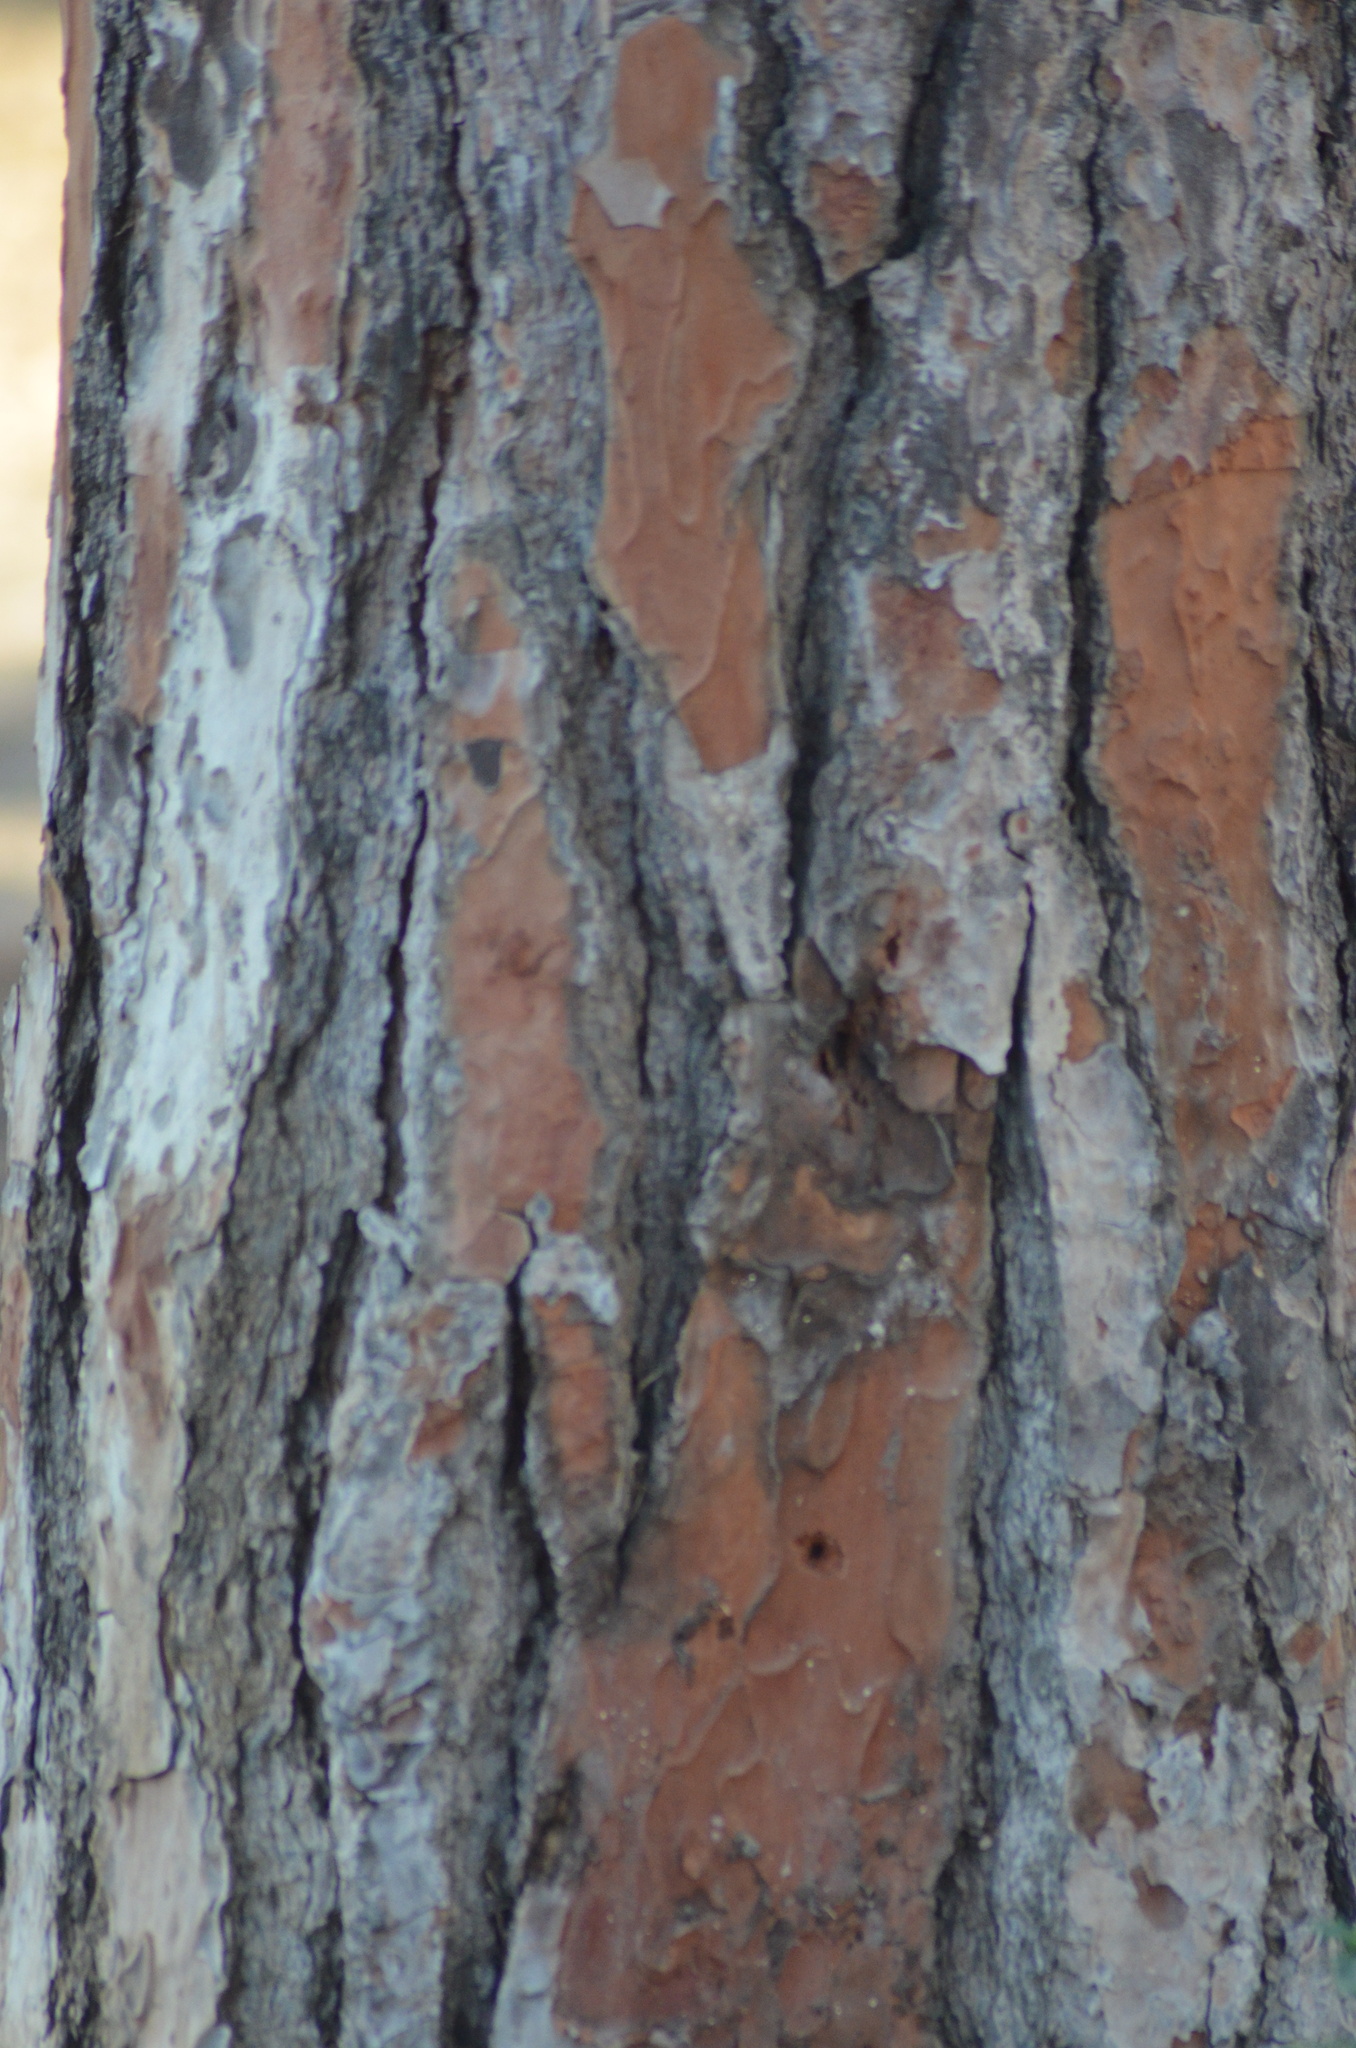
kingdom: Plantae
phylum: Tracheophyta
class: Pinopsida
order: Pinales
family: Pinaceae
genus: Pinus
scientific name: Pinus pinea
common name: Italian stone pine
